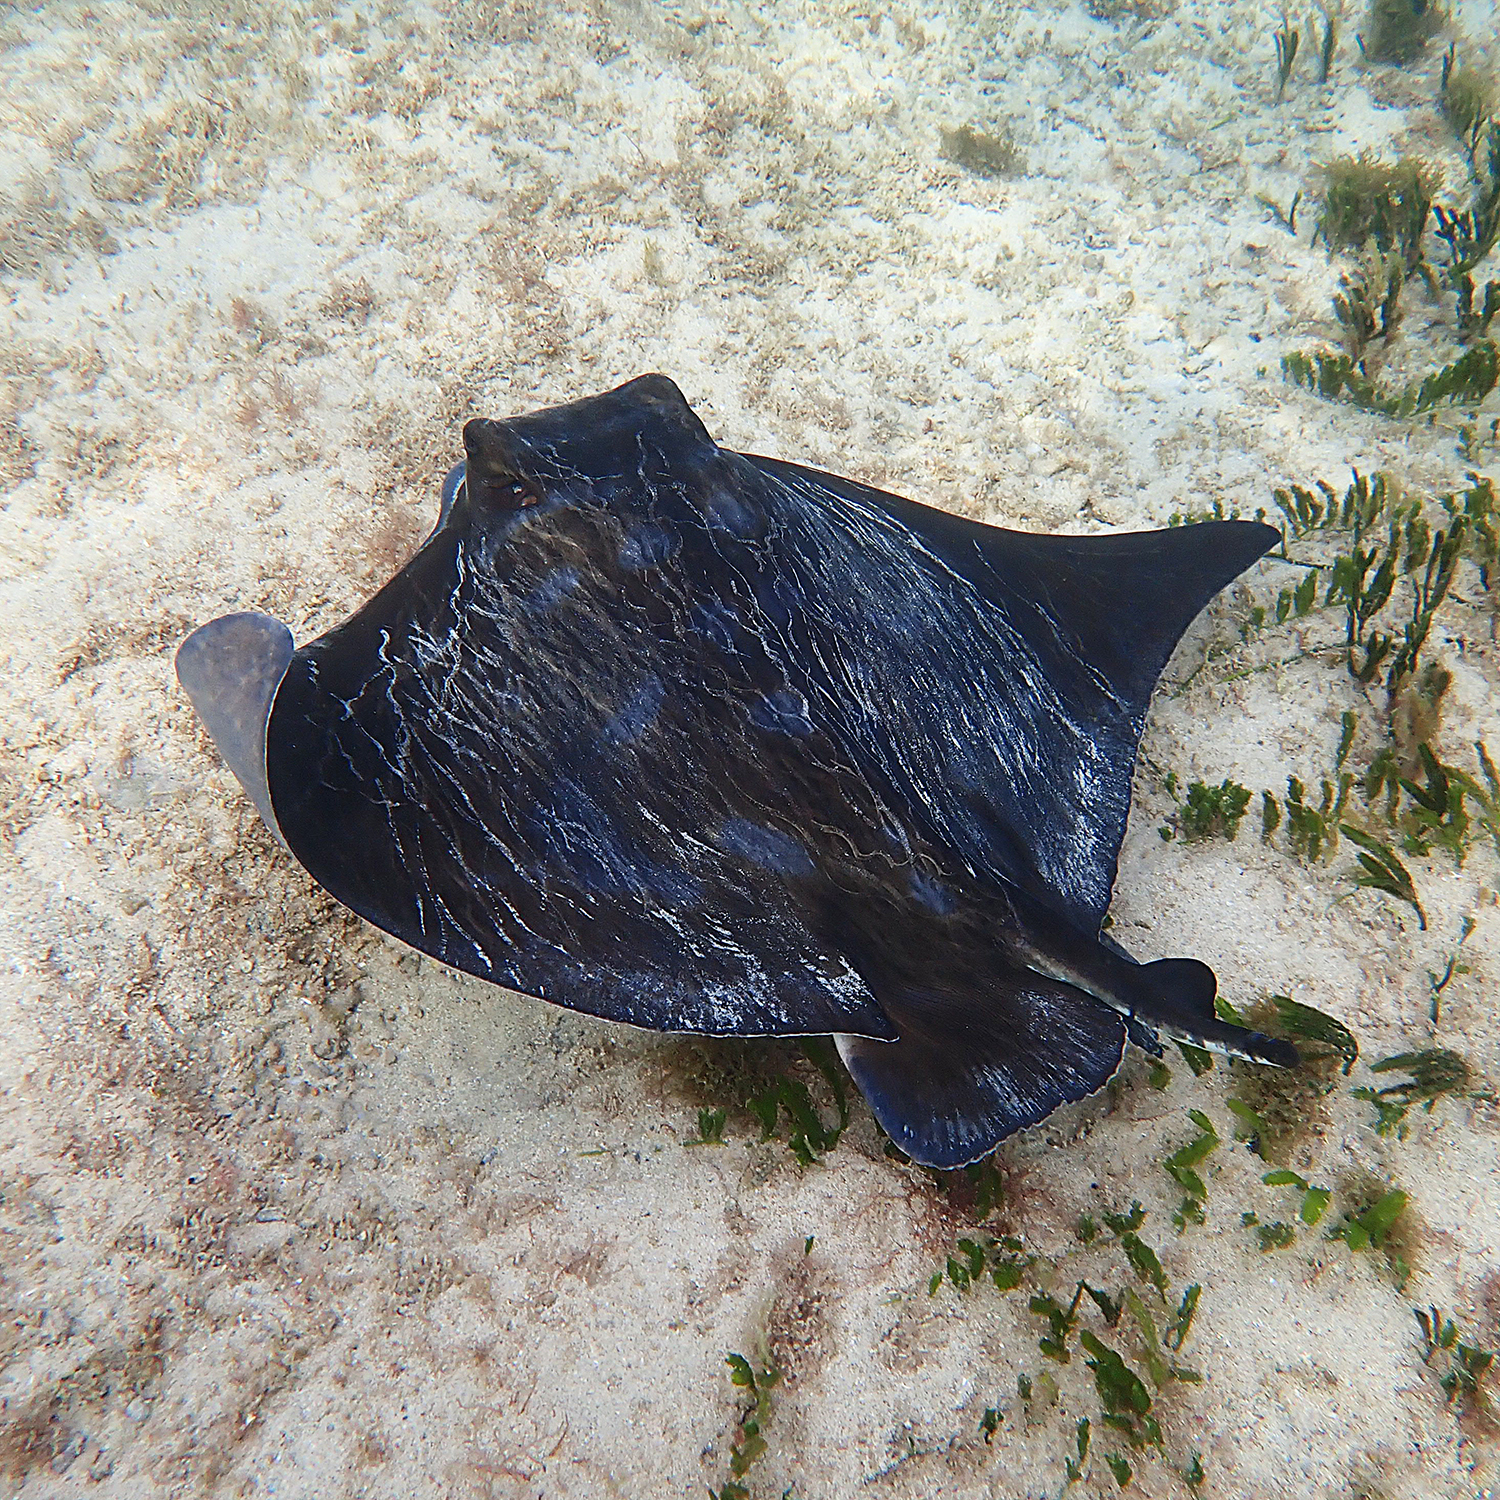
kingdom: Animalia
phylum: Chordata
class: Elasmobranchii
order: Myliobatiformes
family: Myliobatidae
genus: Myliobatis
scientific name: Myliobatis tenuicaudatus
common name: Eagle ray
